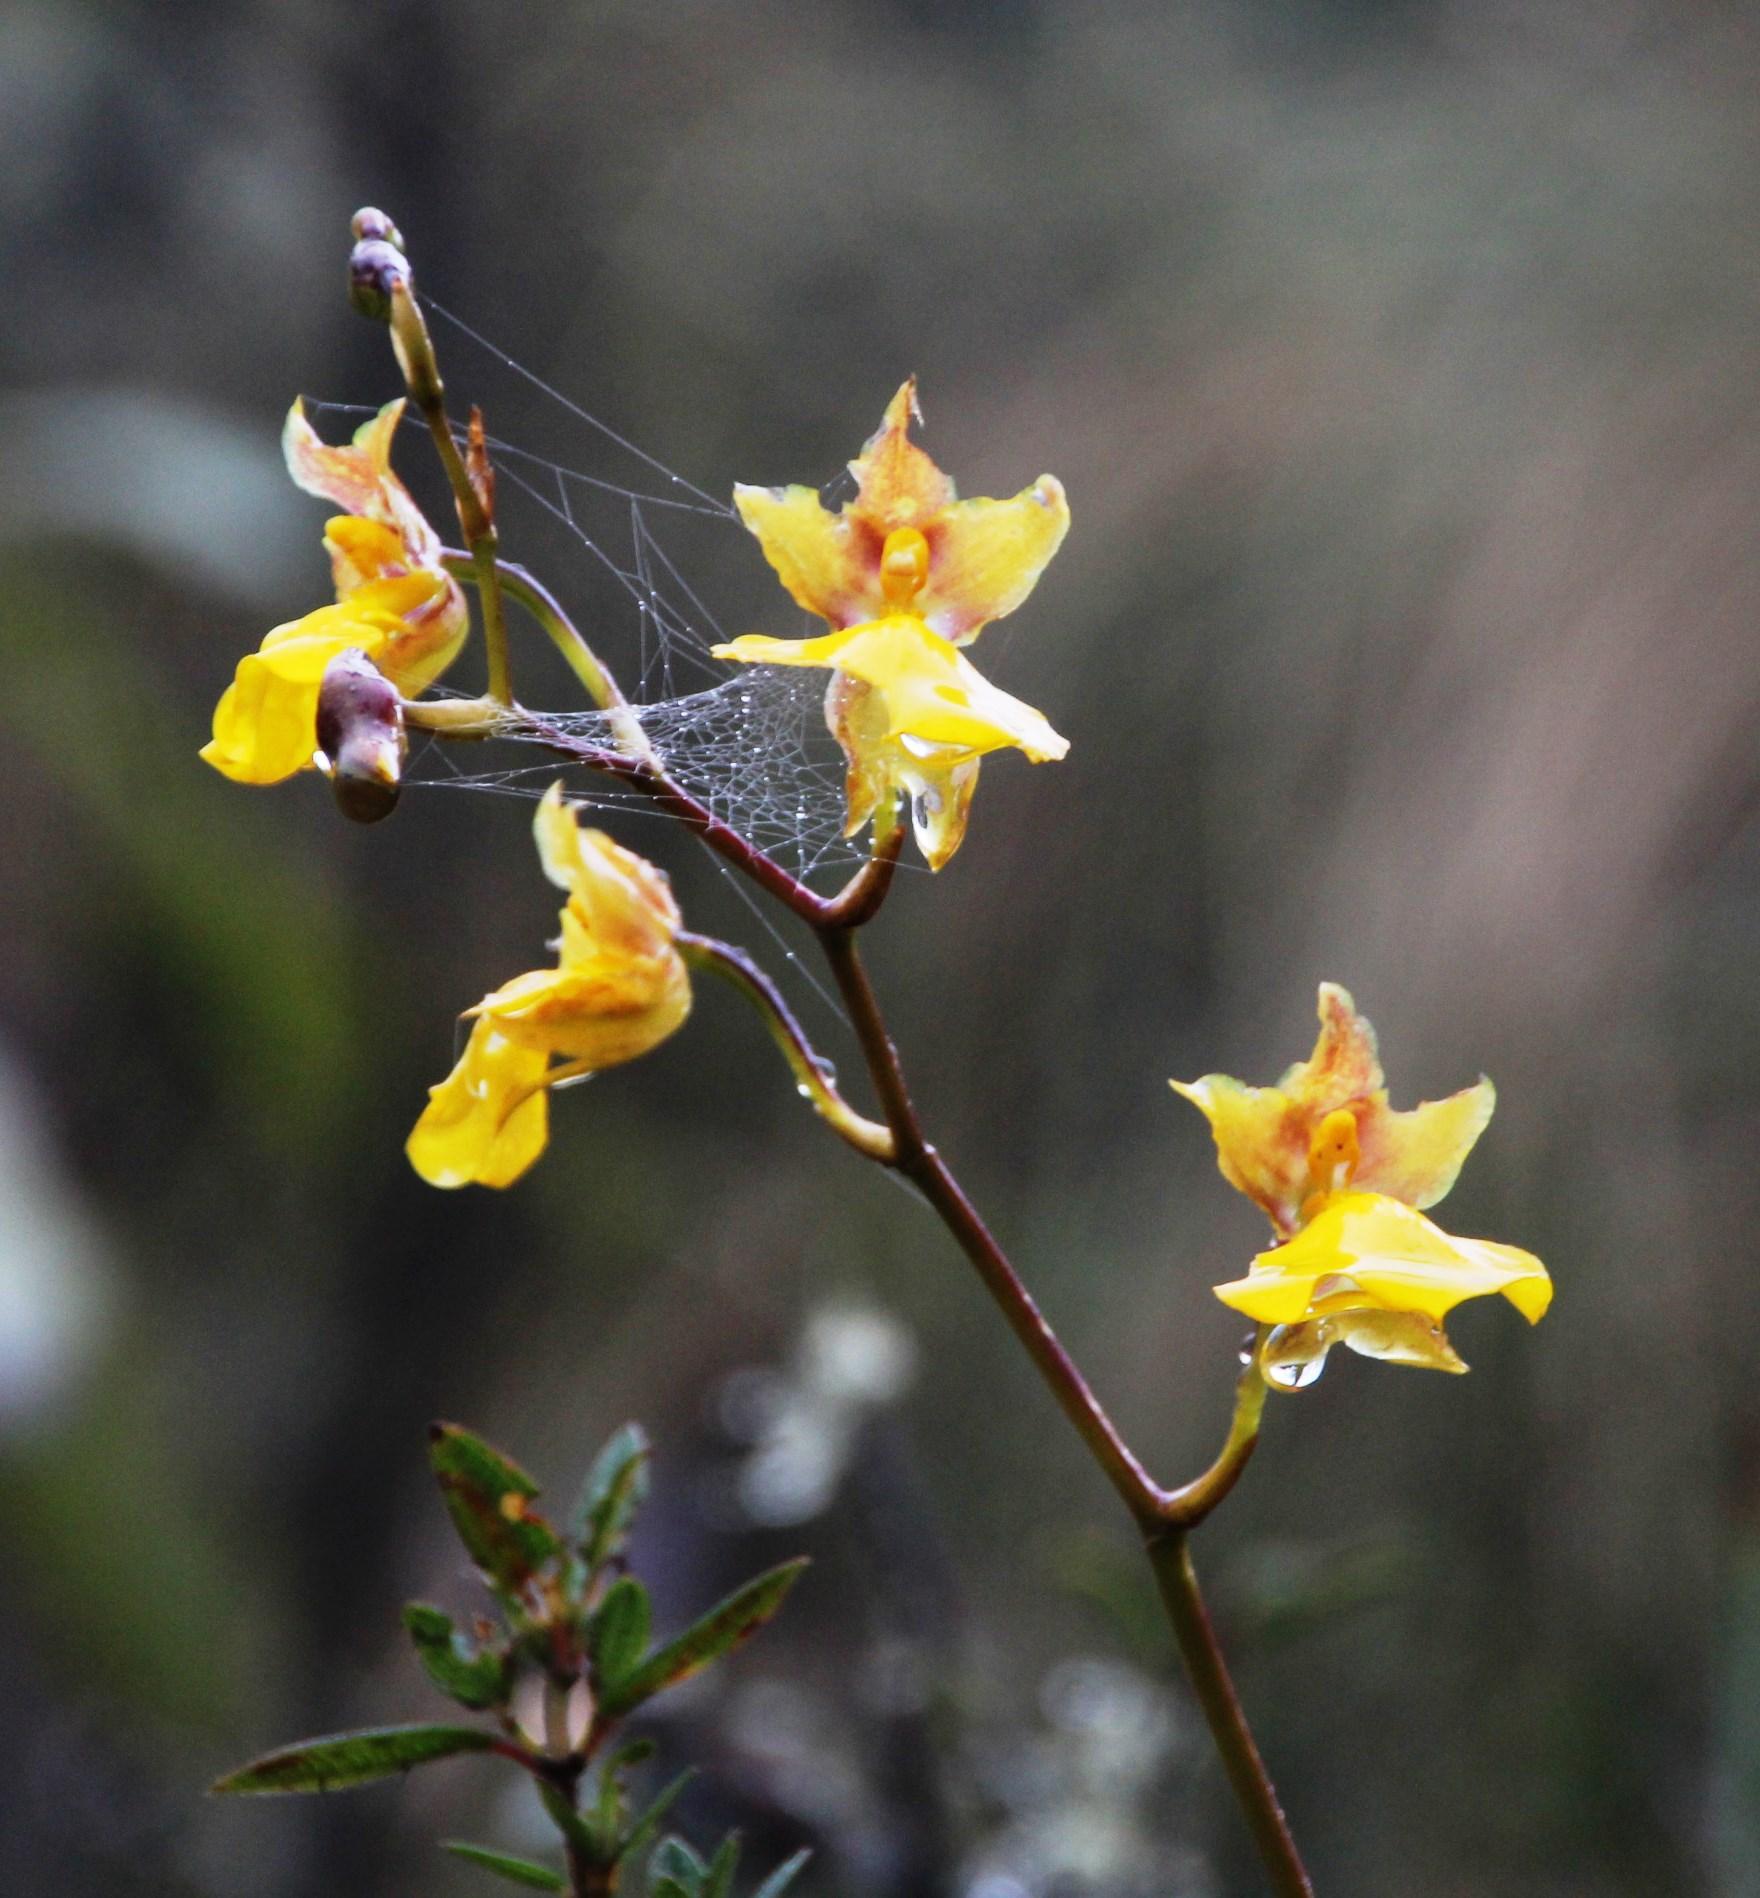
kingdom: Plantae
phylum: Tracheophyta
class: Liliopsida
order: Asparagales
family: Orchidaceae
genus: Cyrtochilum
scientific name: Cyrtochilum aureum
